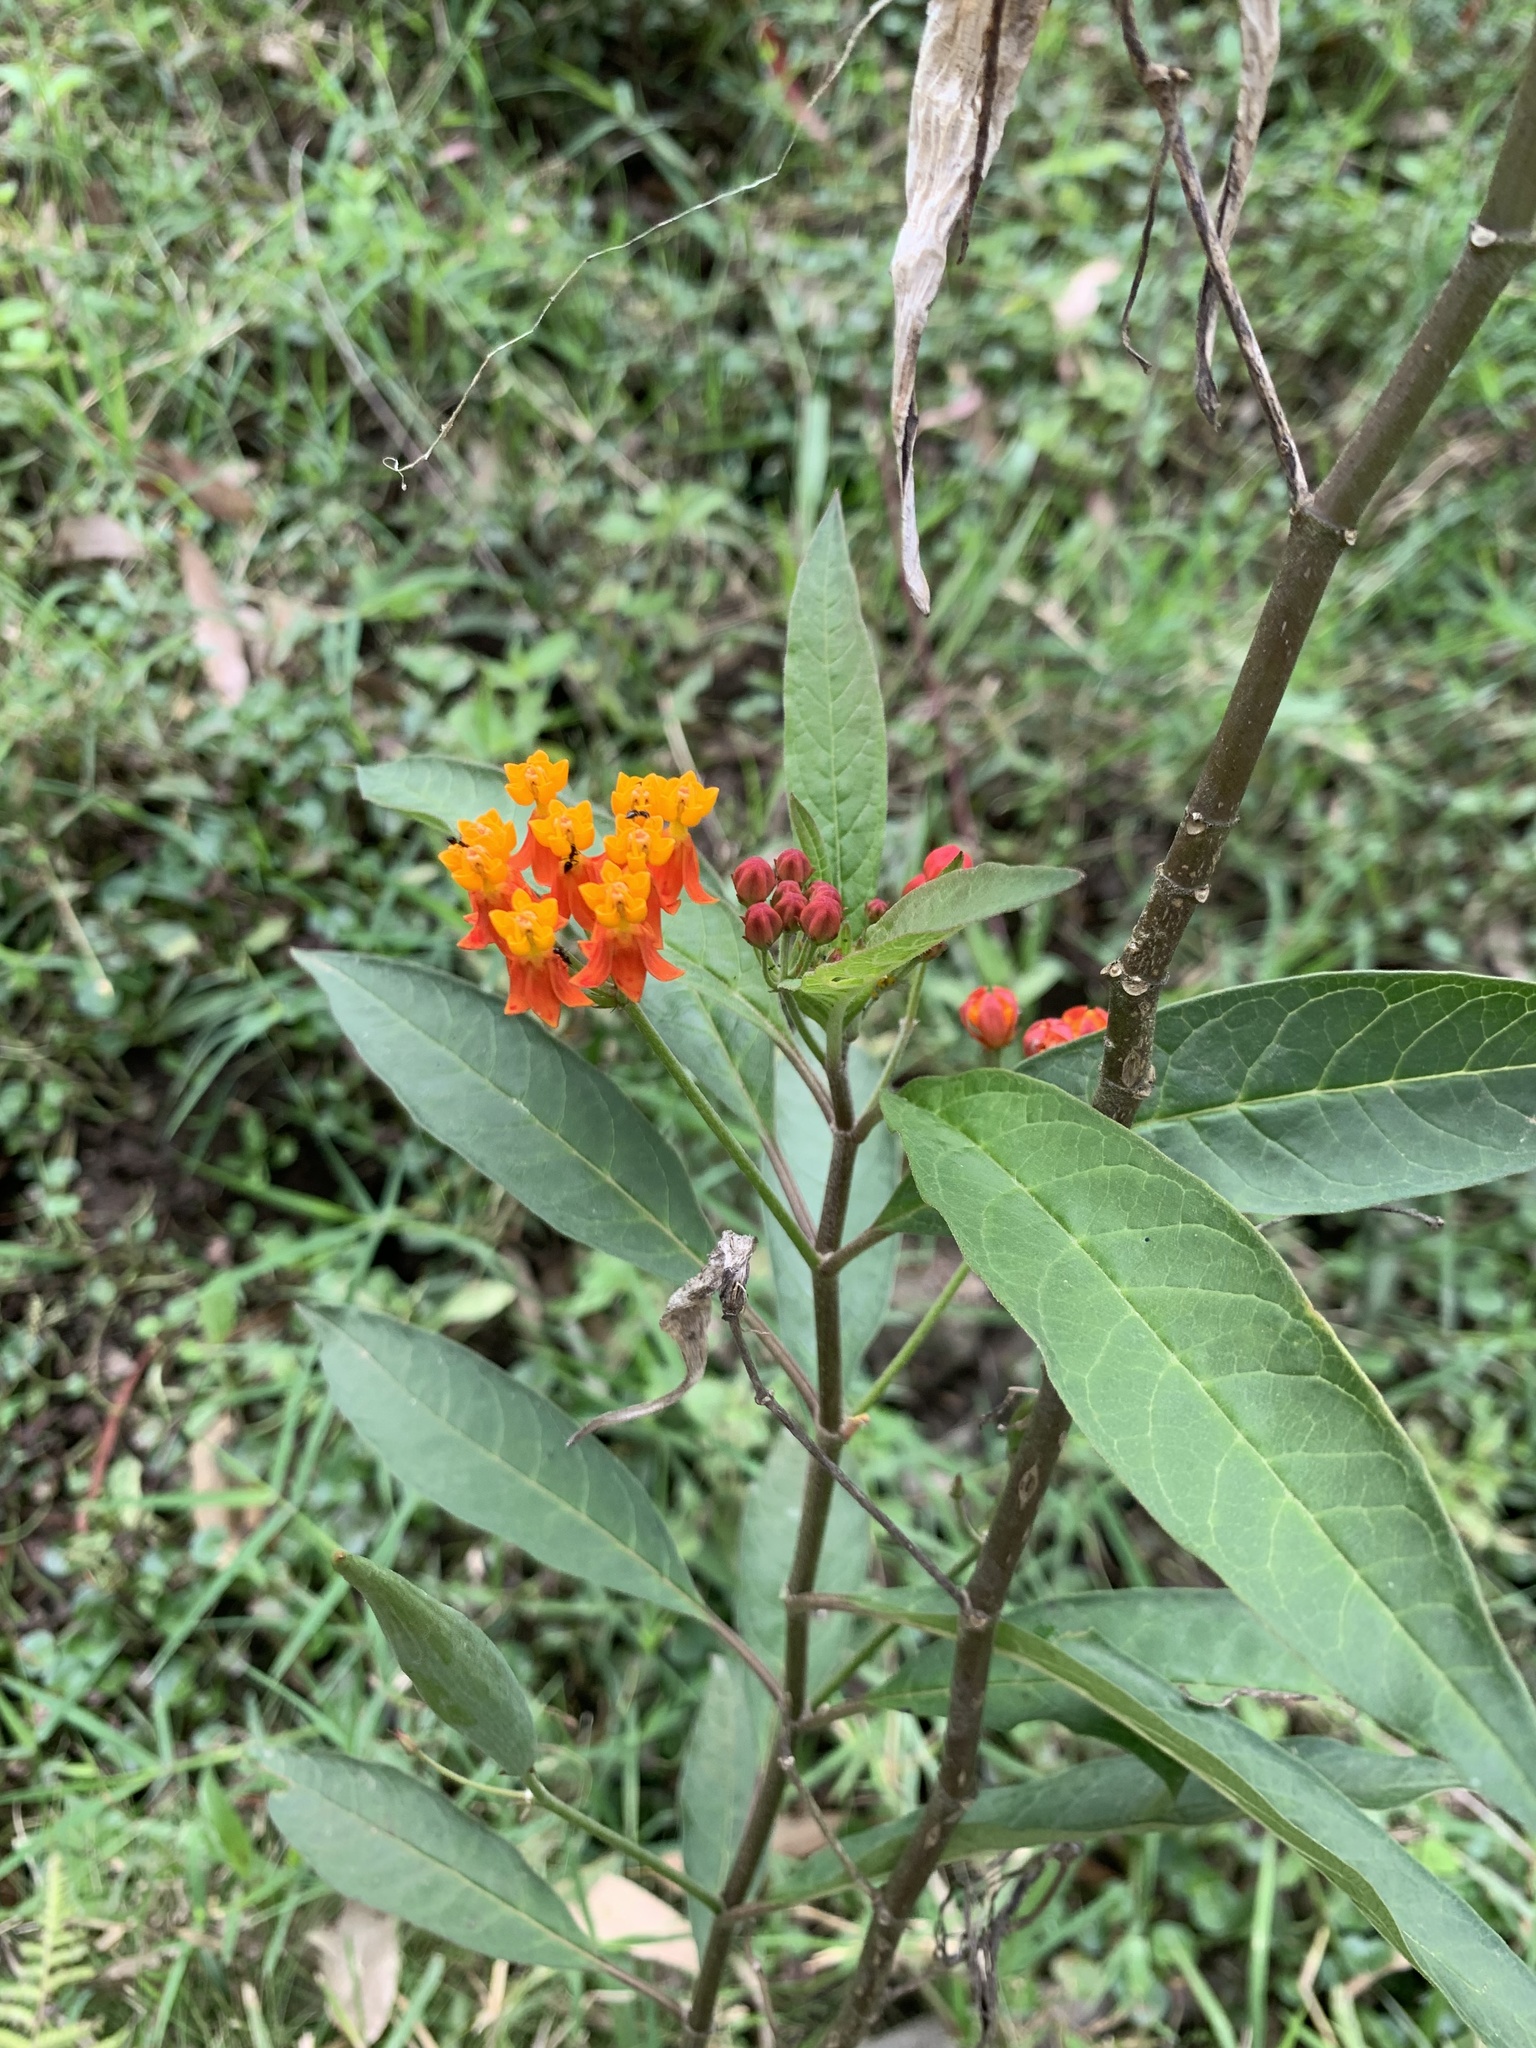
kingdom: Plantae
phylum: Tracheophyta
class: Magnoliopsida
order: Gentianales
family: Apocynaceae
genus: Asclepias
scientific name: Asclepias curassavica
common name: Bloodflower
